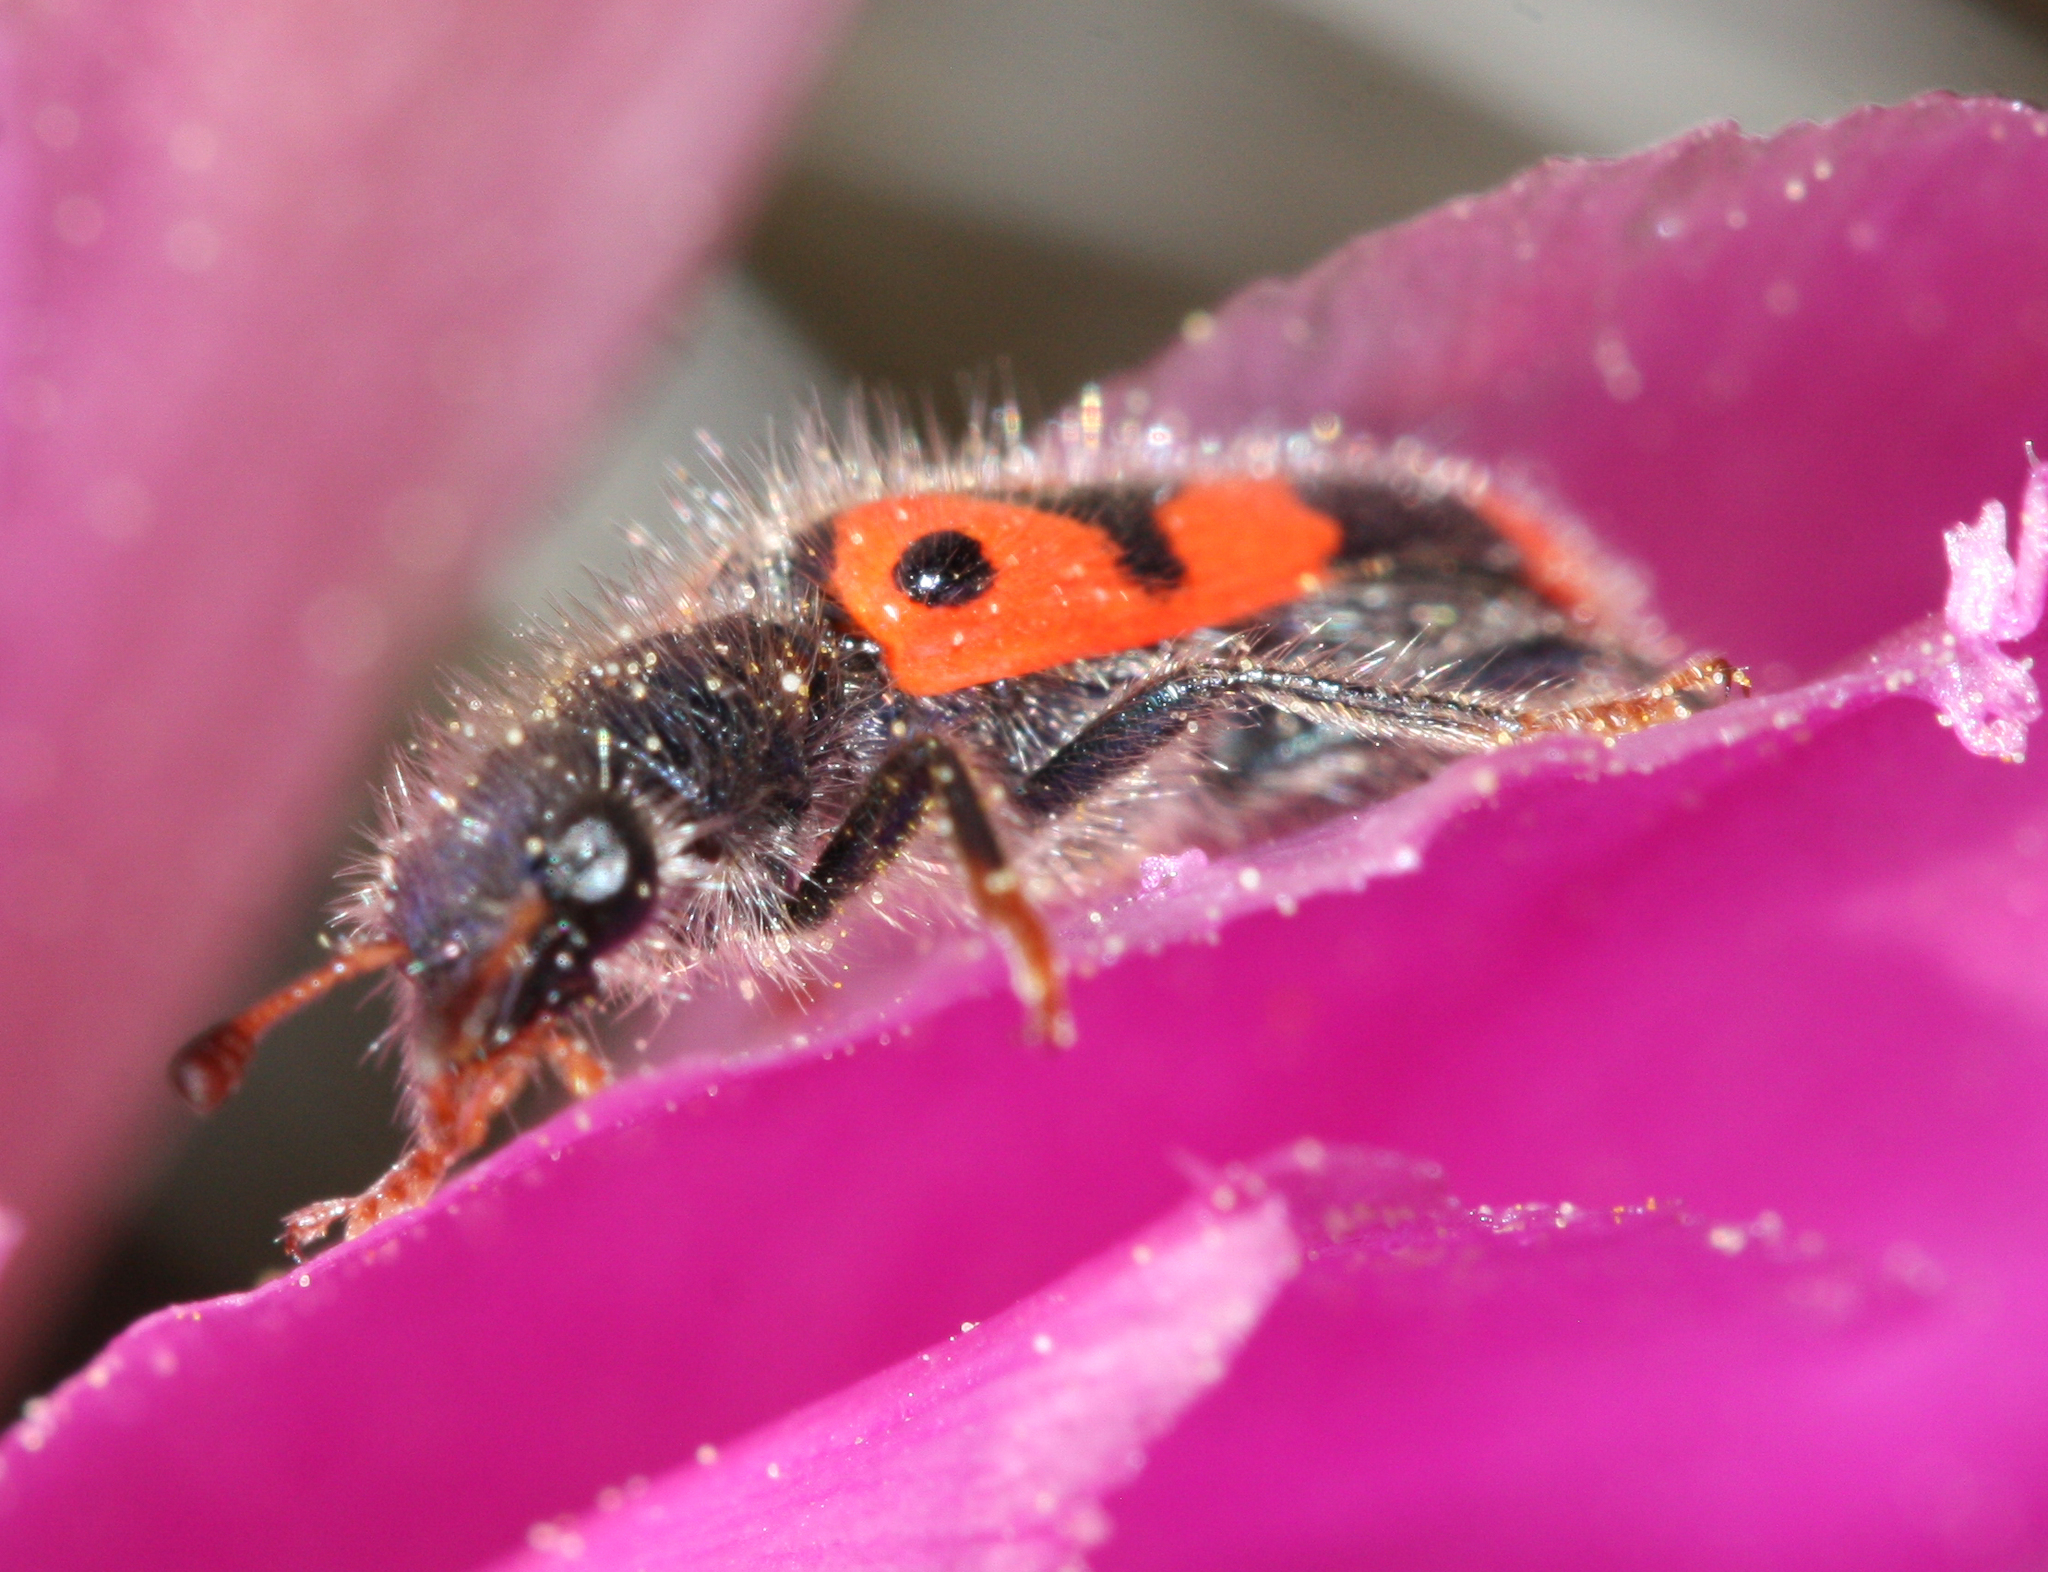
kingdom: Animalia
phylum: Arthropoda
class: Insecta
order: Coleoptera
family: Cleridae
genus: Trichodes
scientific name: Trichodes ornatus
